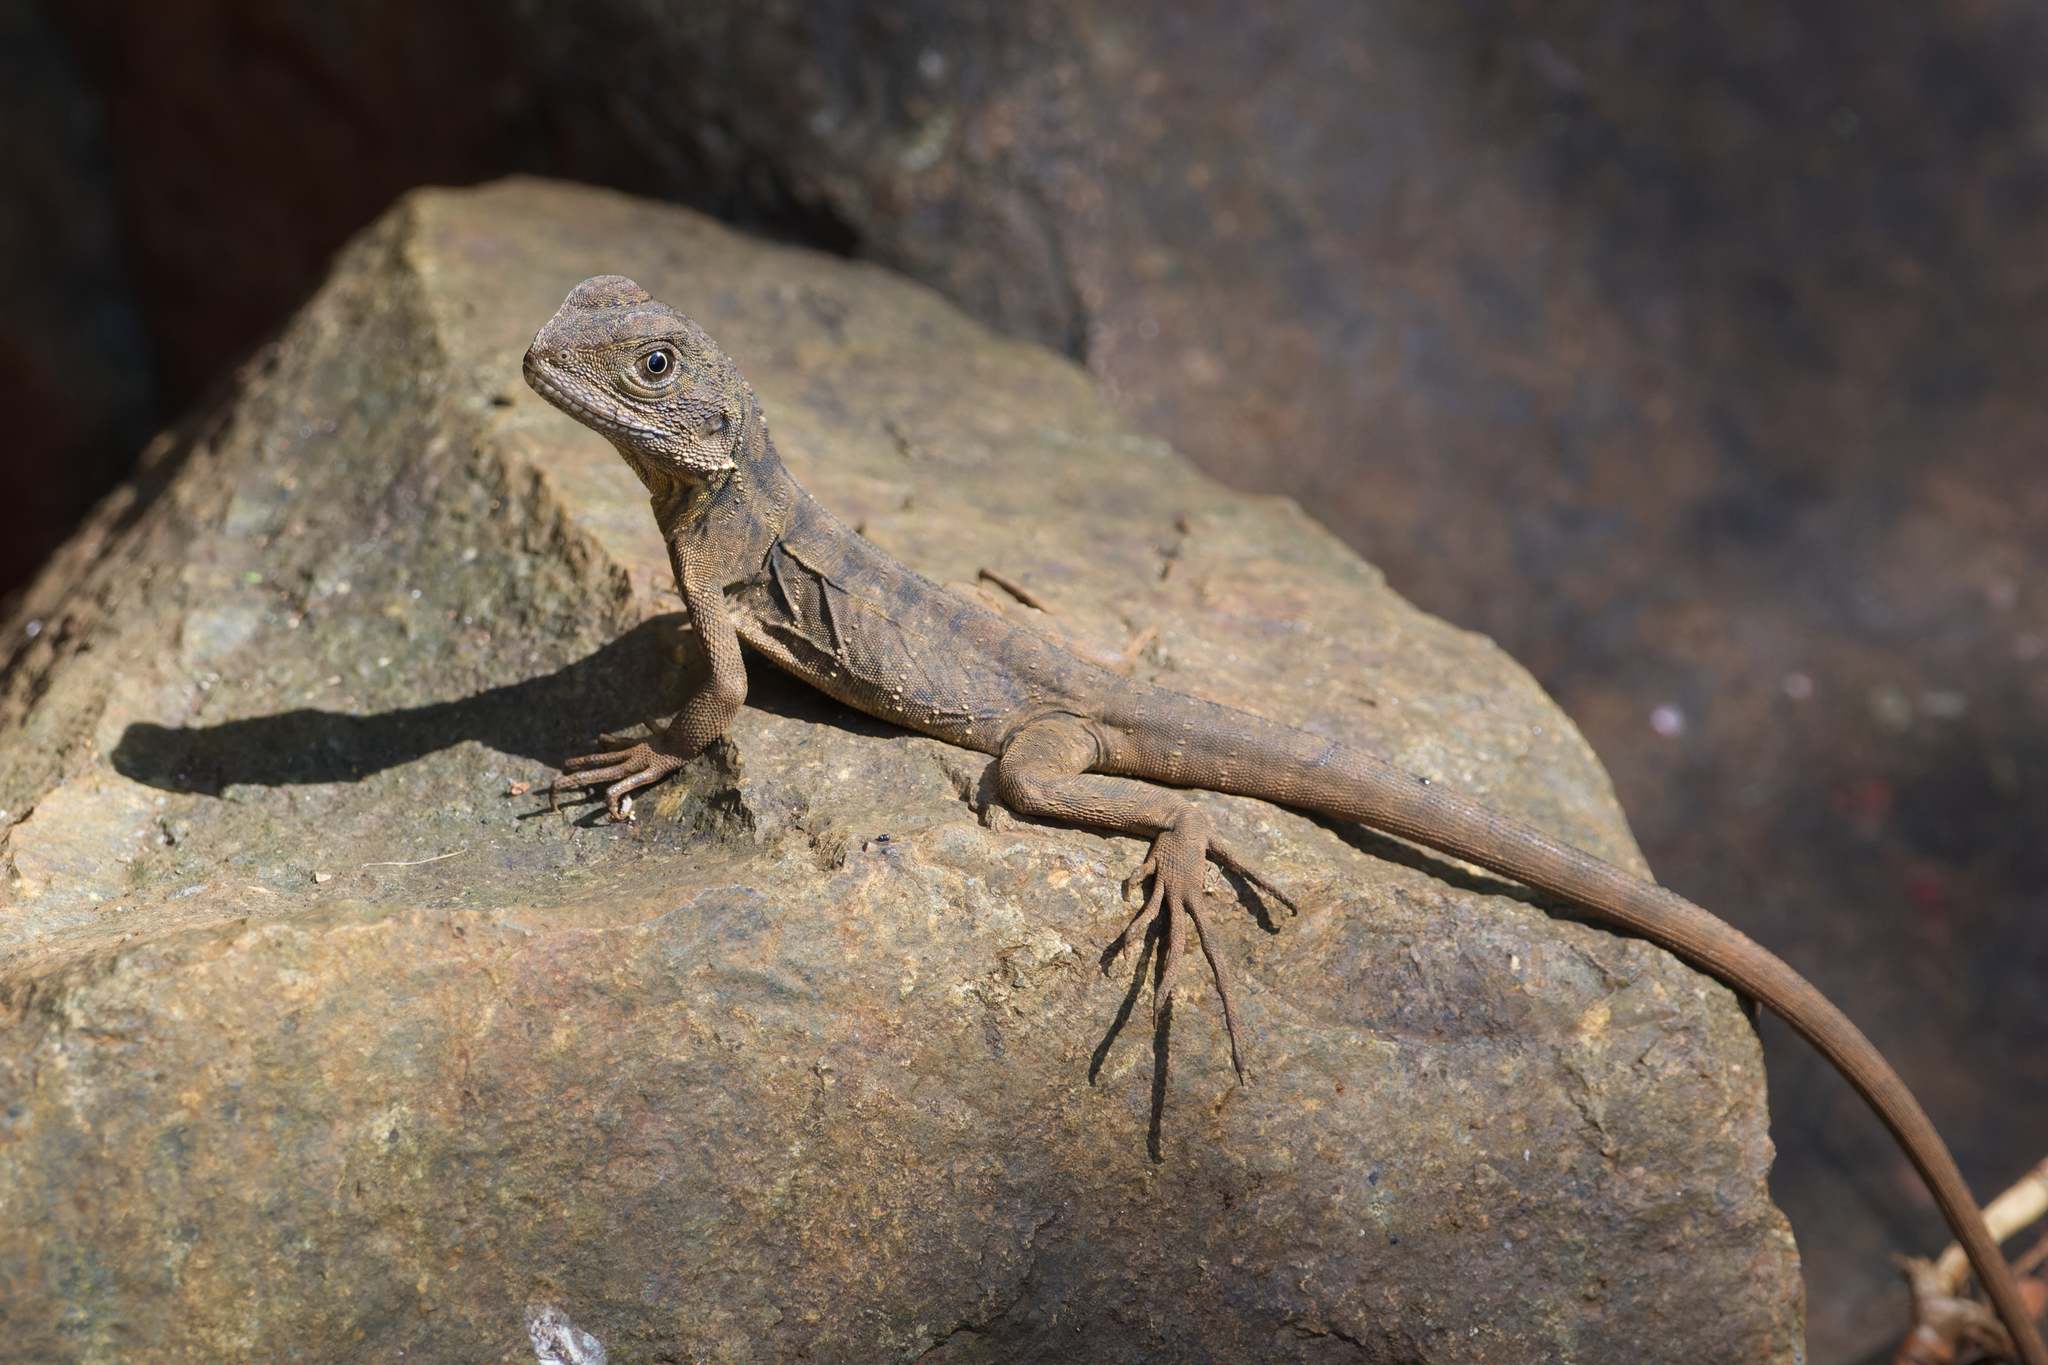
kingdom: Animalia
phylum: Chordata
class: Squamata
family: Agamidae
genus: Intellagama
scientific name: Intellagama lesueurii
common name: Eastern water dragon
